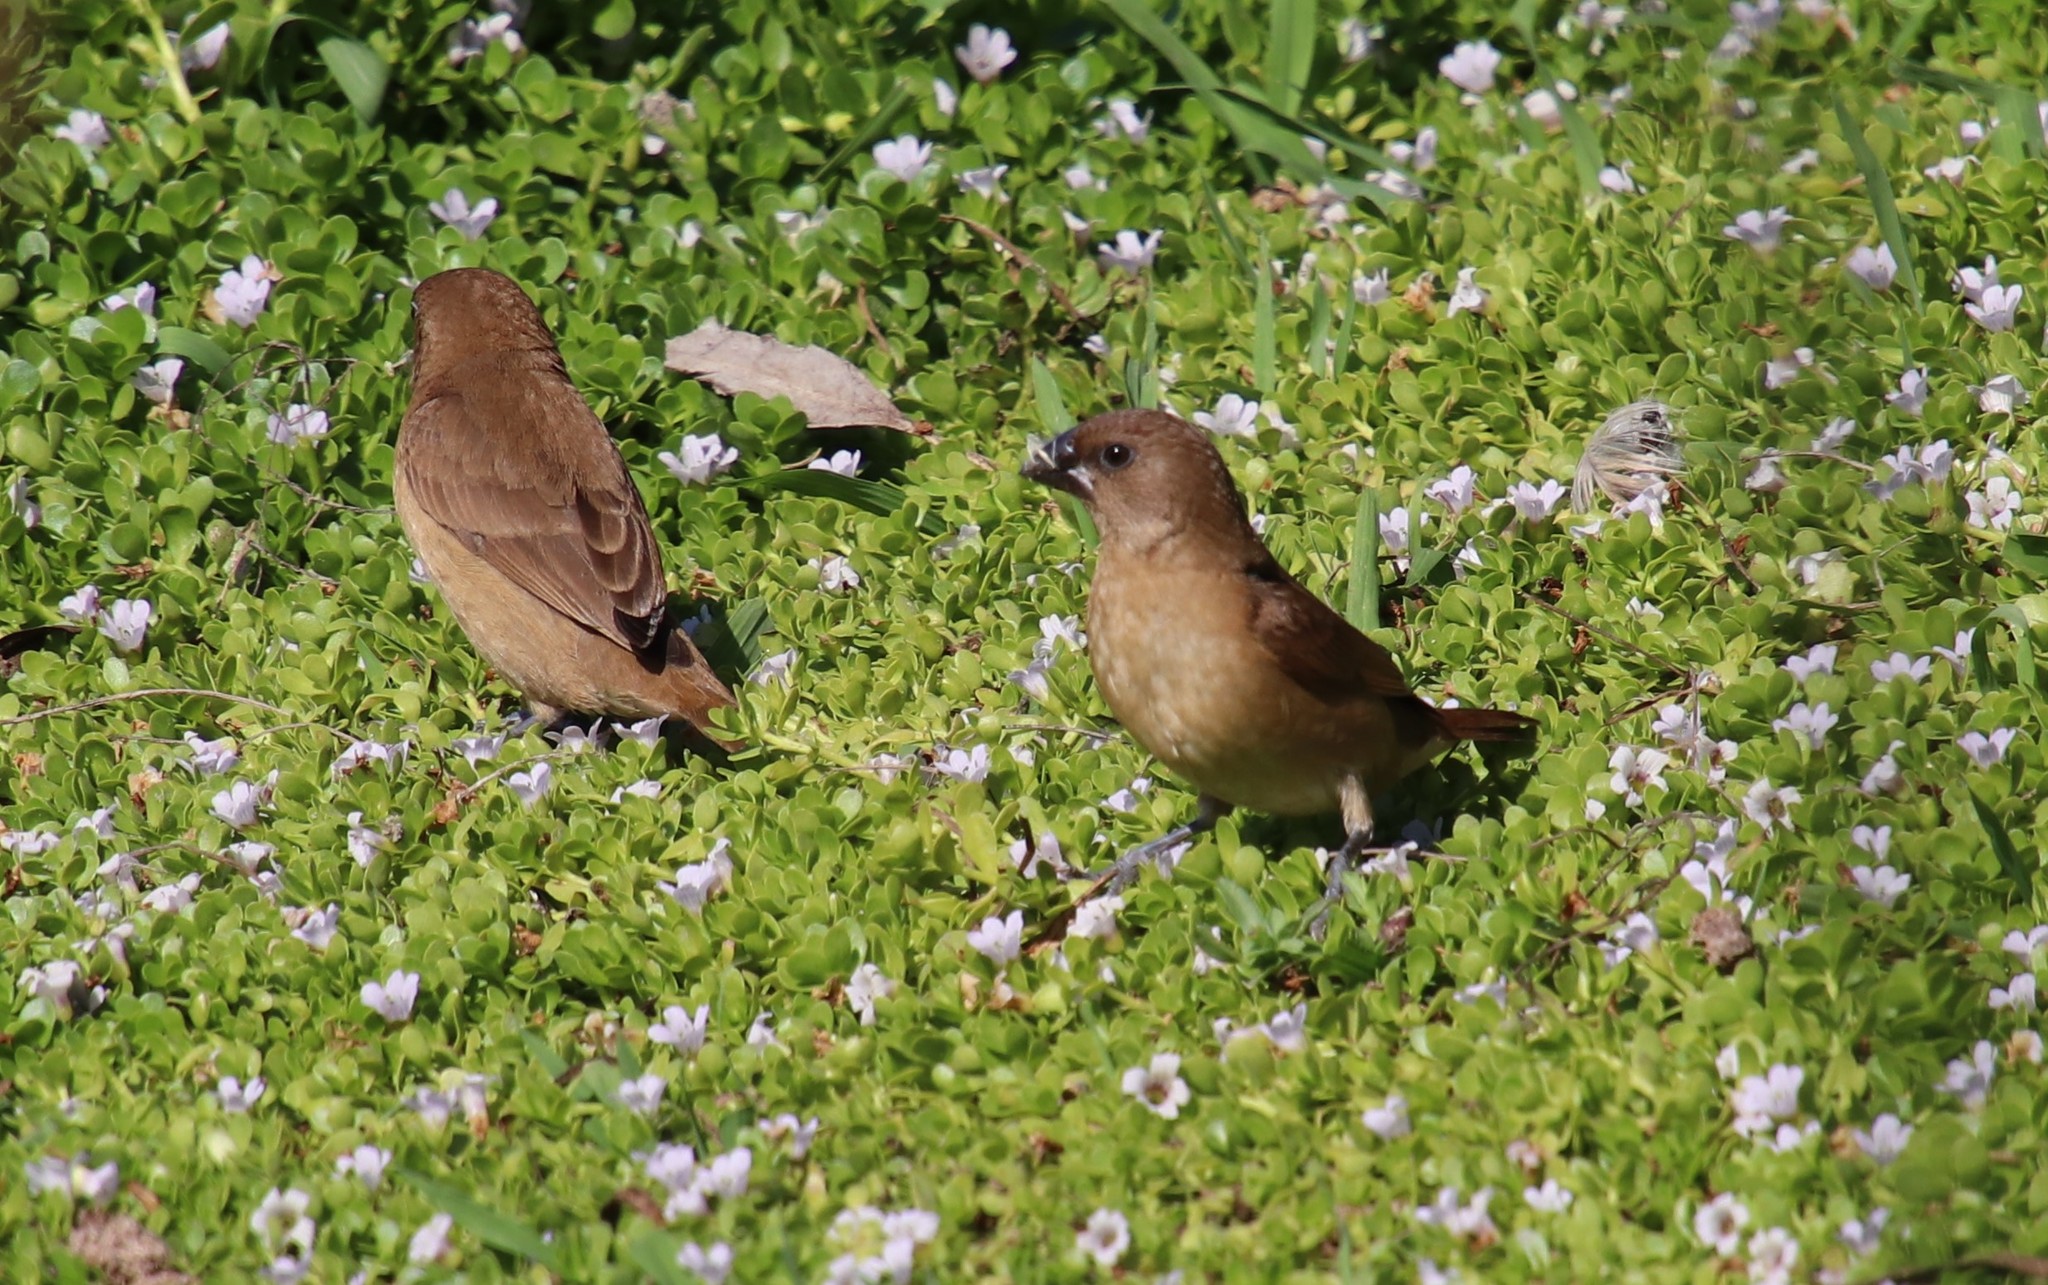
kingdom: Animalia
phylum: Chordata
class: Aves
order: Passeriformes
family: Estrildidae
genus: Lonchura
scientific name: Lonchura punctulata
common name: Scaly-breasted munia
